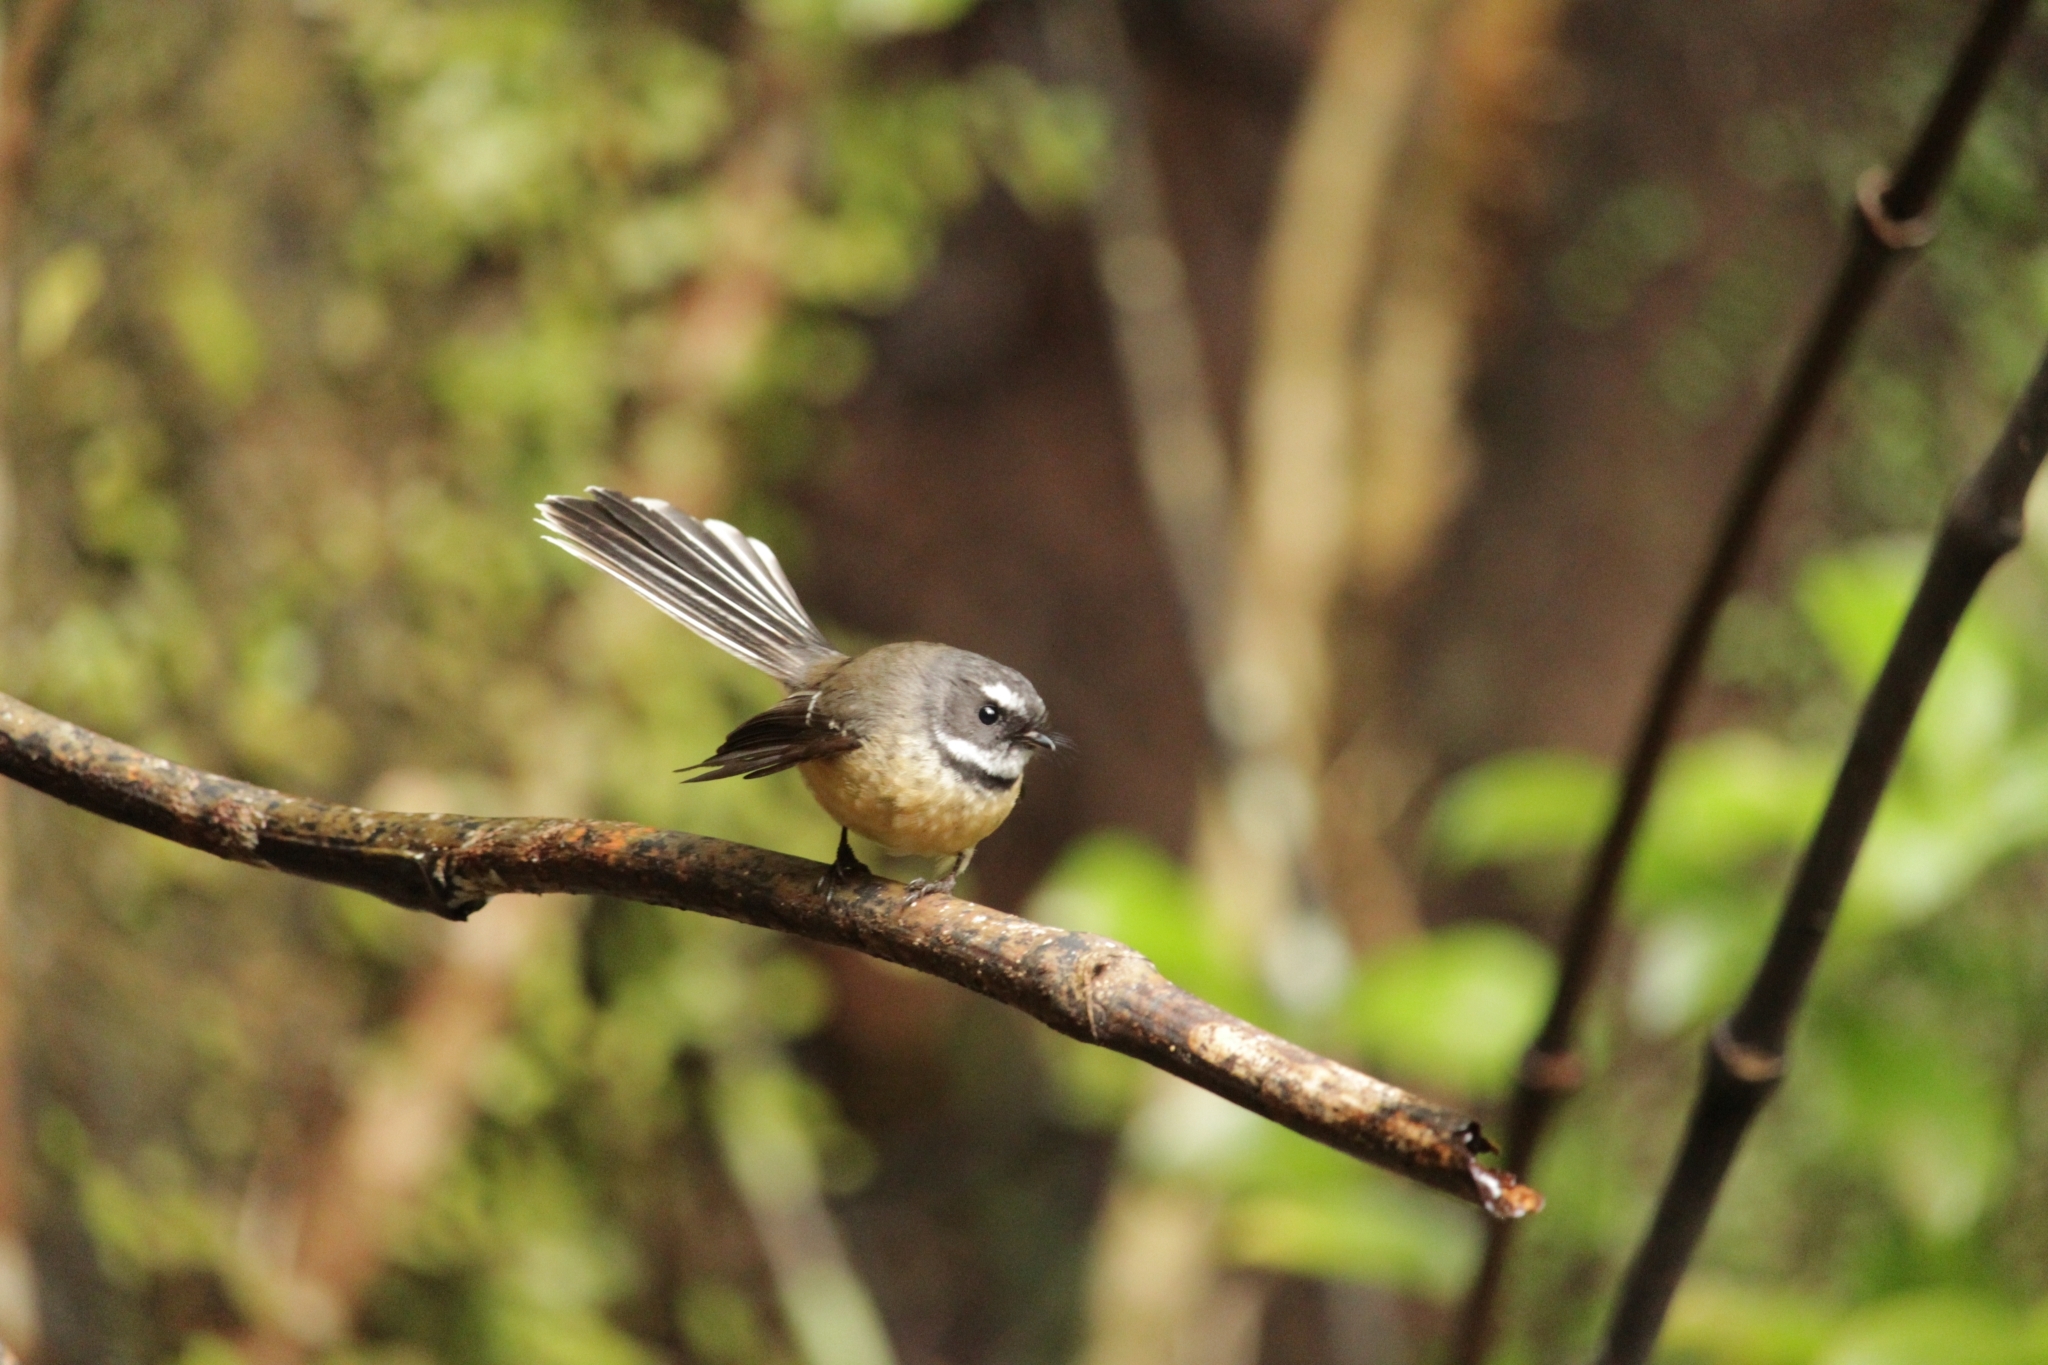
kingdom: Animalia
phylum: Chordata
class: Aves
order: Passeriformes
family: Rhipiduridae
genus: Rhipidura
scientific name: Rhipidura fuliginosa
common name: New zealand fantail
